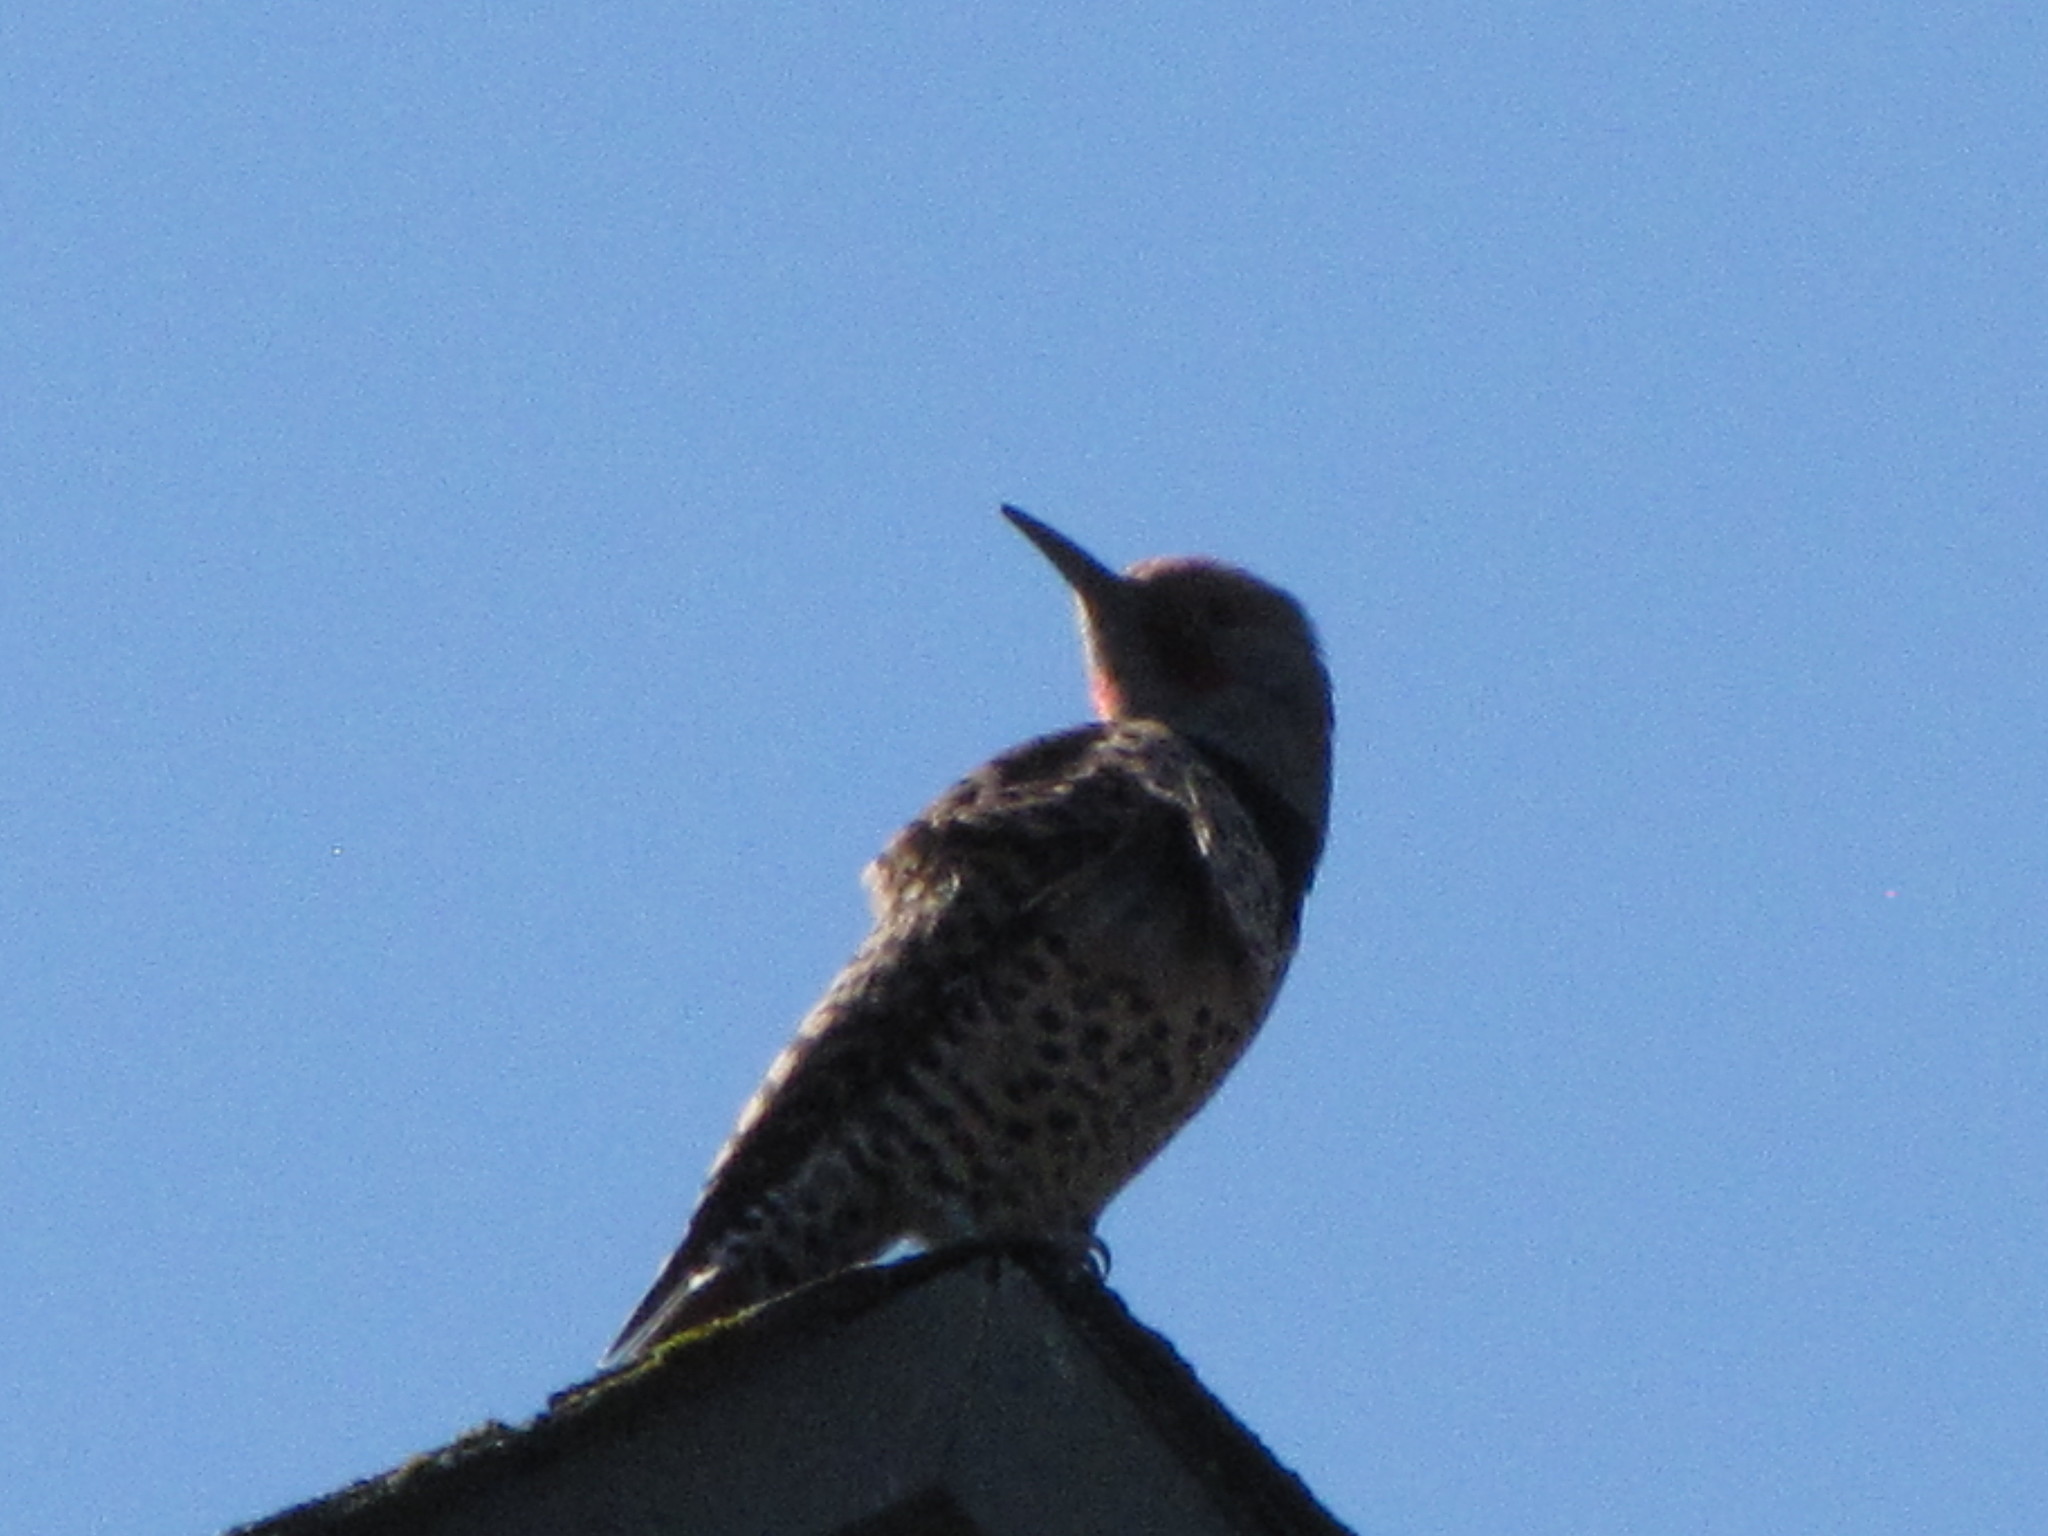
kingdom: Animalia
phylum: Chordata
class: Aves
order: Piciformes
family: Picidae
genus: Colaptes
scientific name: Colaptes auratus
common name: Northern flicker
